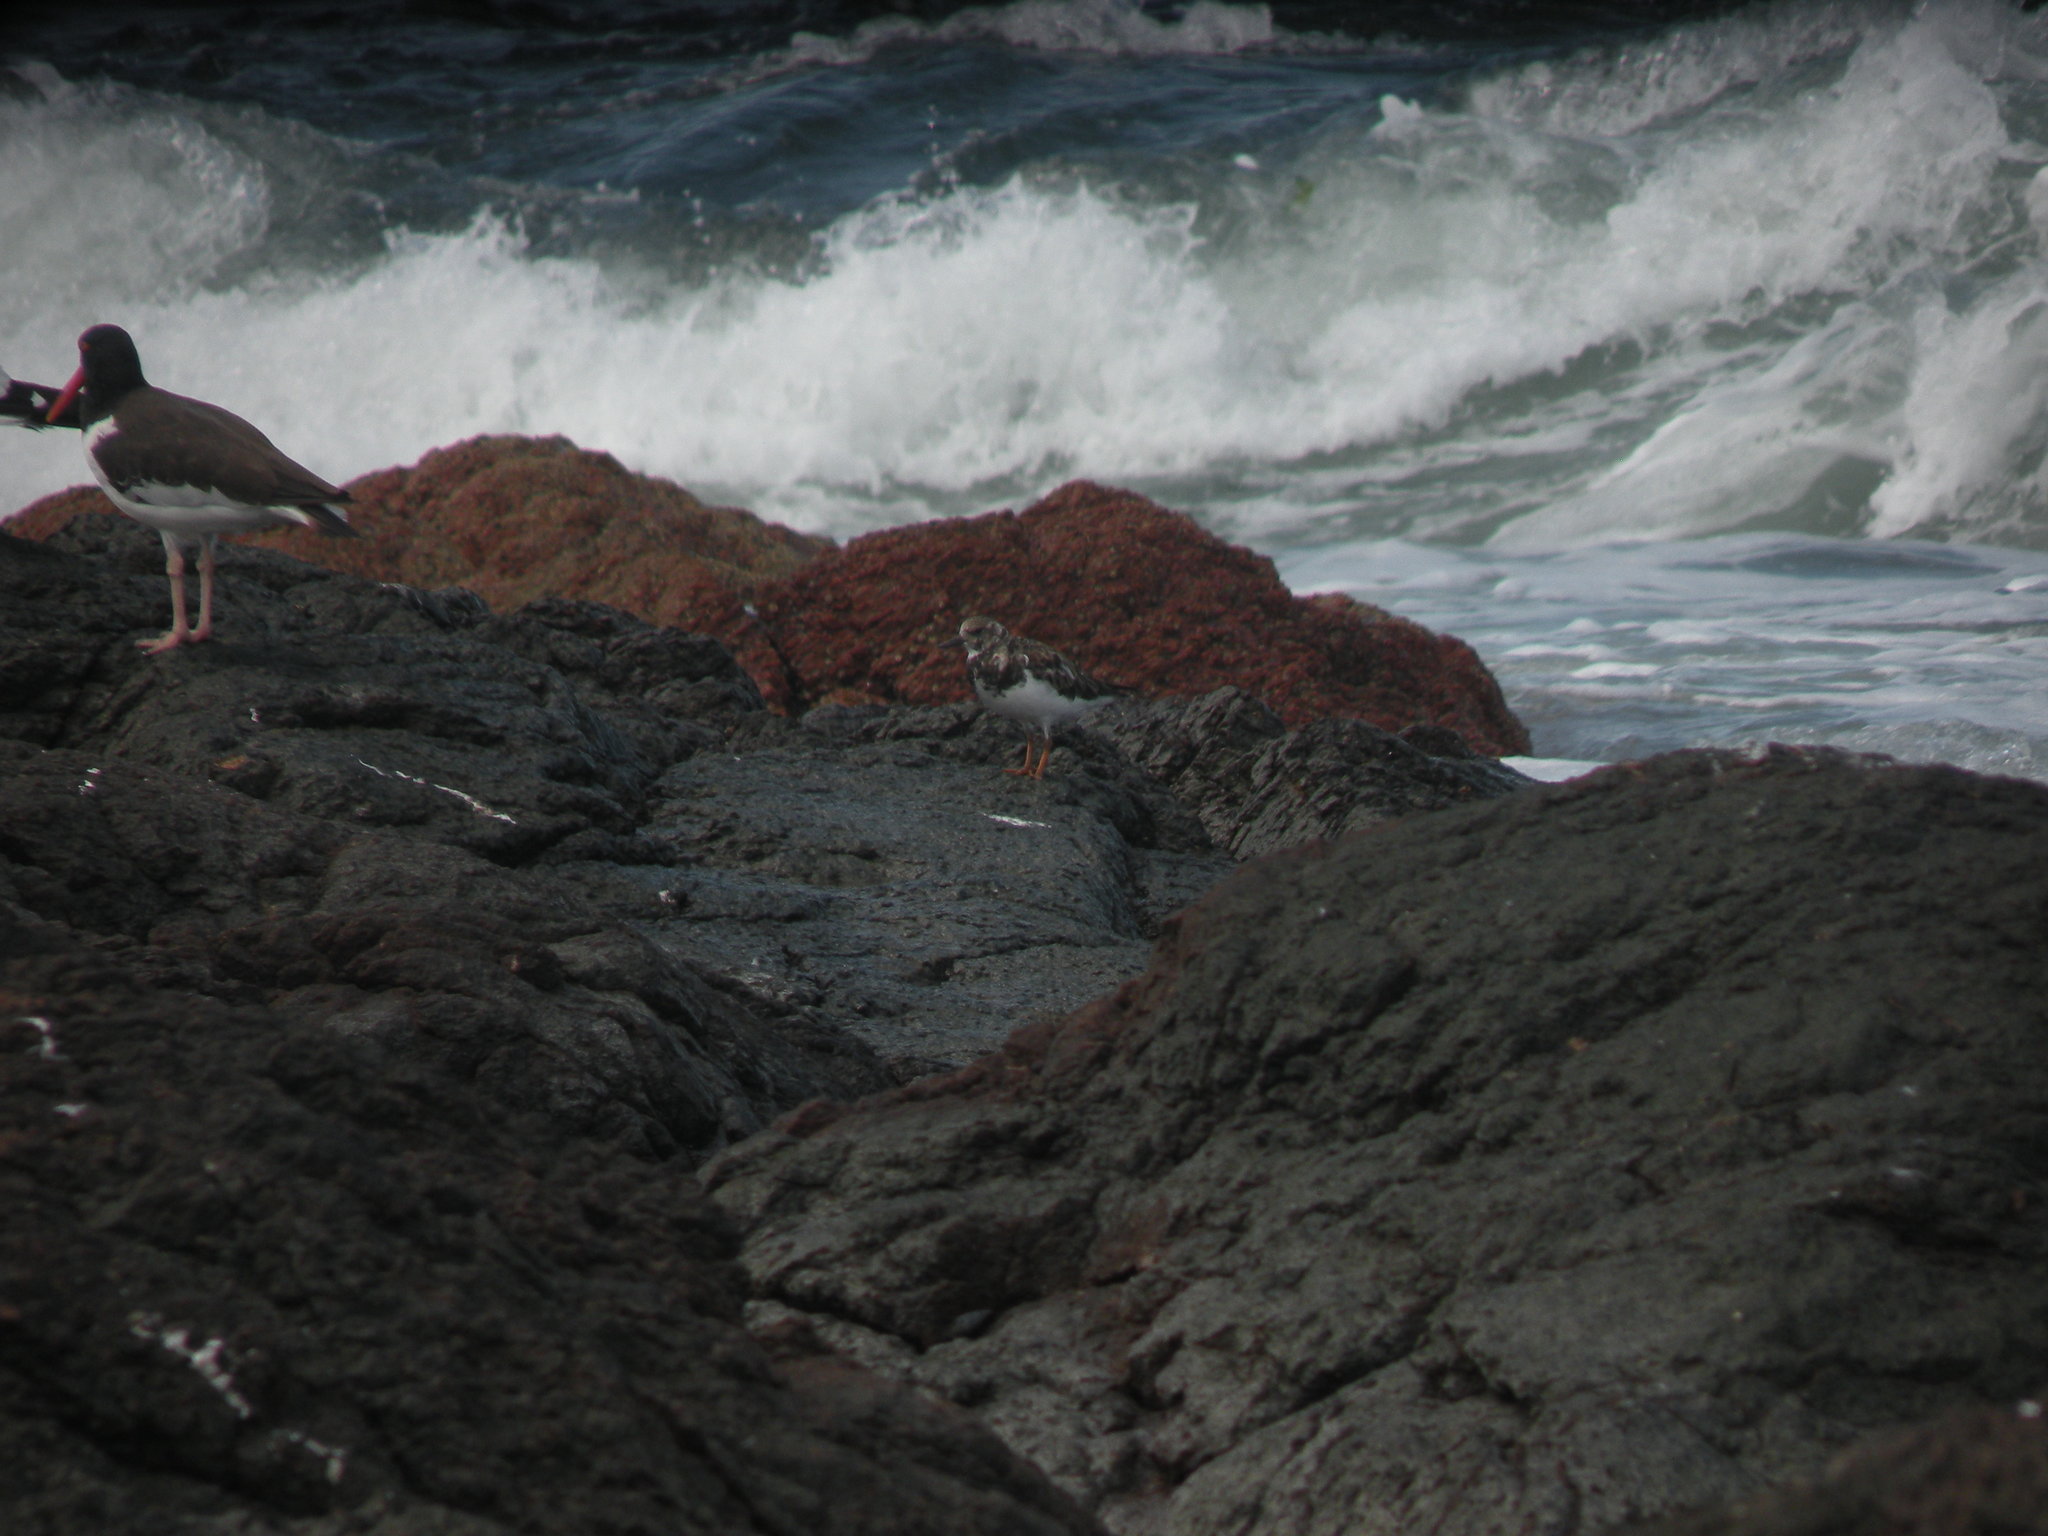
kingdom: Animalia
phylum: Chordata
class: Aves
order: Charadriiformes
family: Scolopacidae
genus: Arenaria
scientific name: Arenaria interpres
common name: Ruddy turnstone
